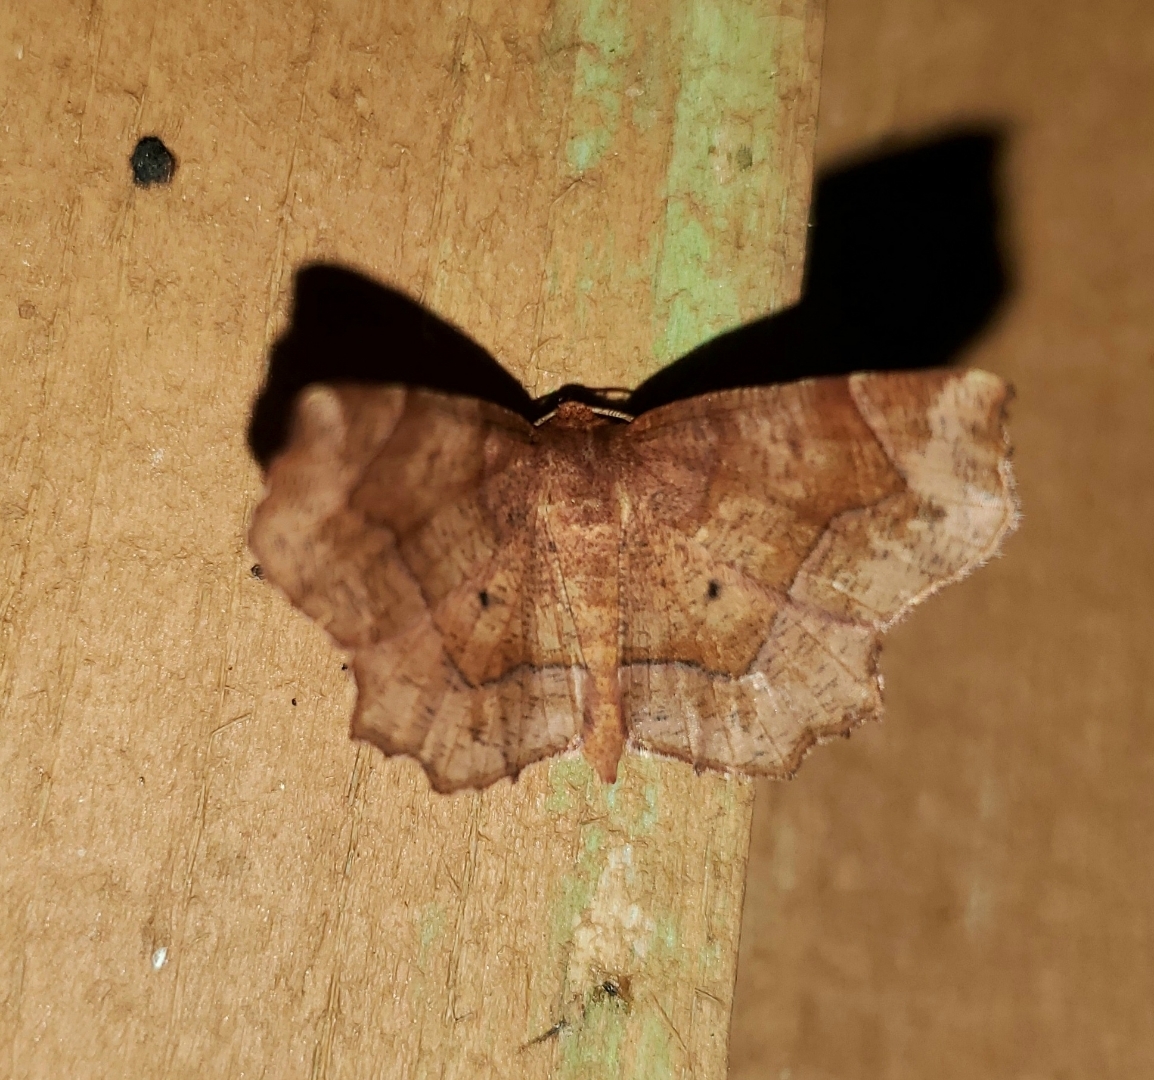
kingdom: Animalia
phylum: Arthropoda
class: Insecta
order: Lepidoptera
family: Geometridae
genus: Metarranthis
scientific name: Metarranthis homuraria
